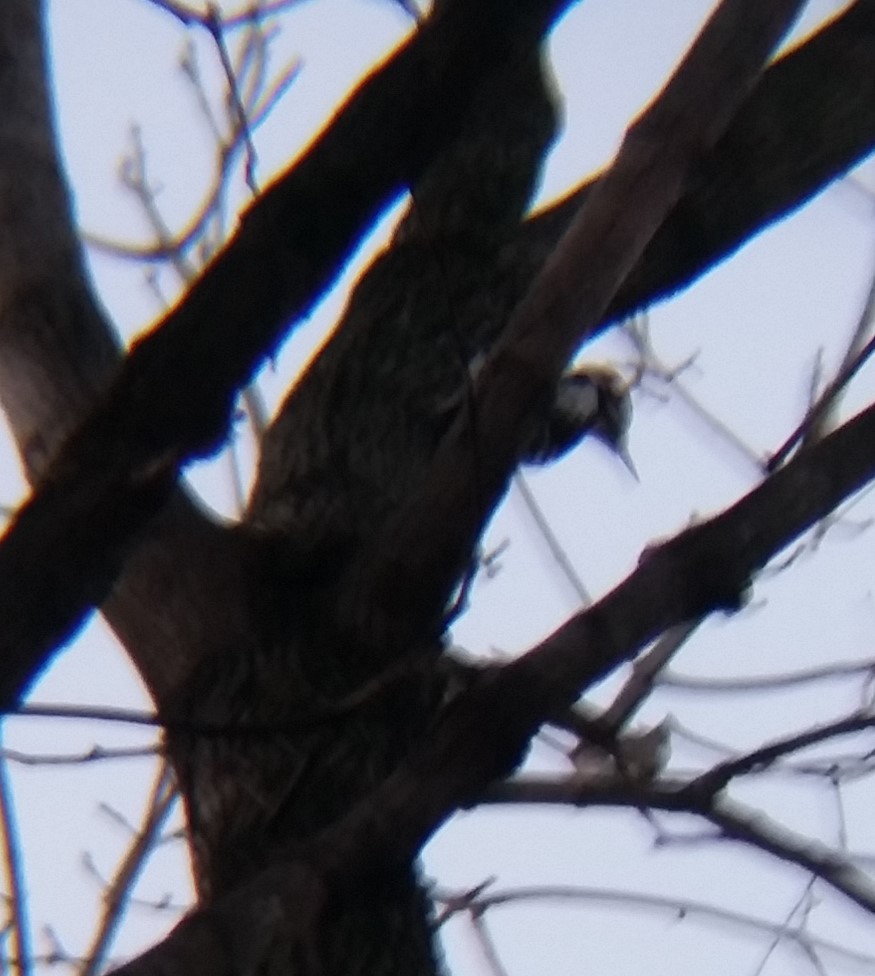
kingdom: Animalia
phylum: Chordata
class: Aves
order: Piciformes
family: Picidae
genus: Leuconotopicus
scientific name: Leuconotopicus villosus
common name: Hairy woodpecker
